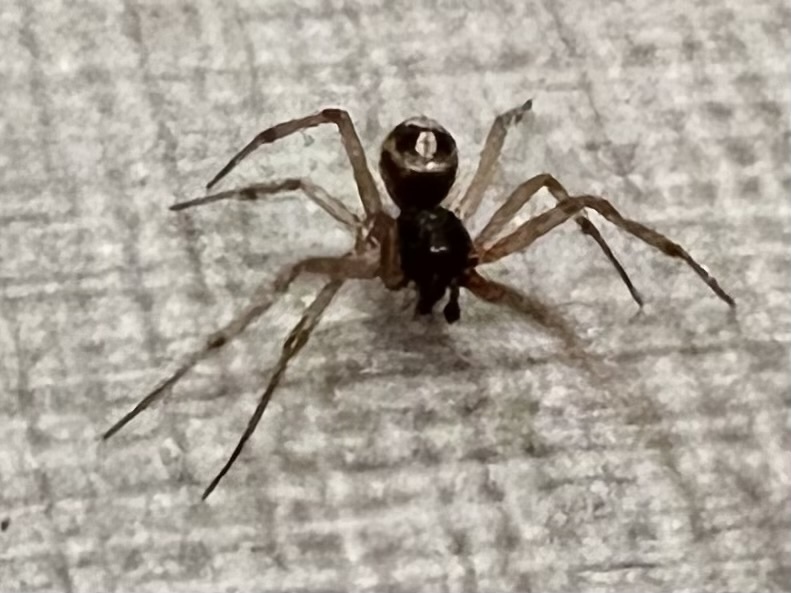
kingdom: Animalia
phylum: Arthropoda
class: Arachnida
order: Araneae
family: Theridiidae
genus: Steatoda
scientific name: Steatoda triangulosa
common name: Triangulate bud spider
